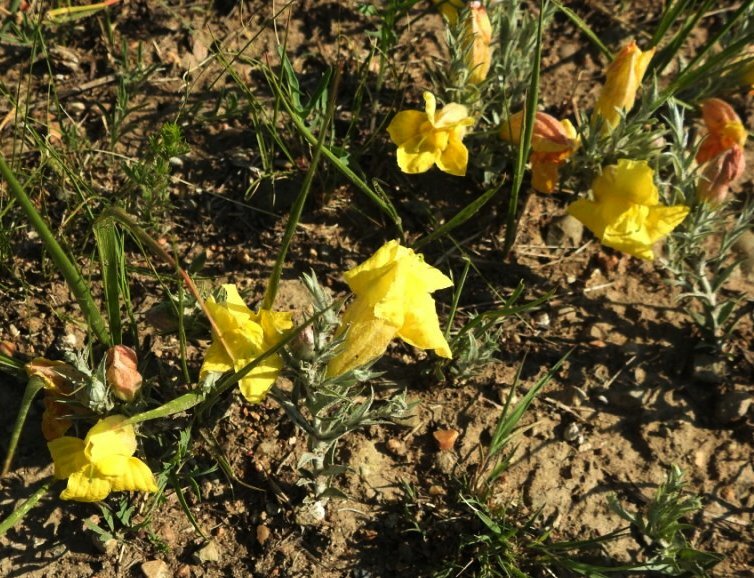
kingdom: Plantae
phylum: Tracheophyta
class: Magnoliopsida
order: Lamiales
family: Orobanchaceae
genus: Cymbaria
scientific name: Cymbaria daurica
